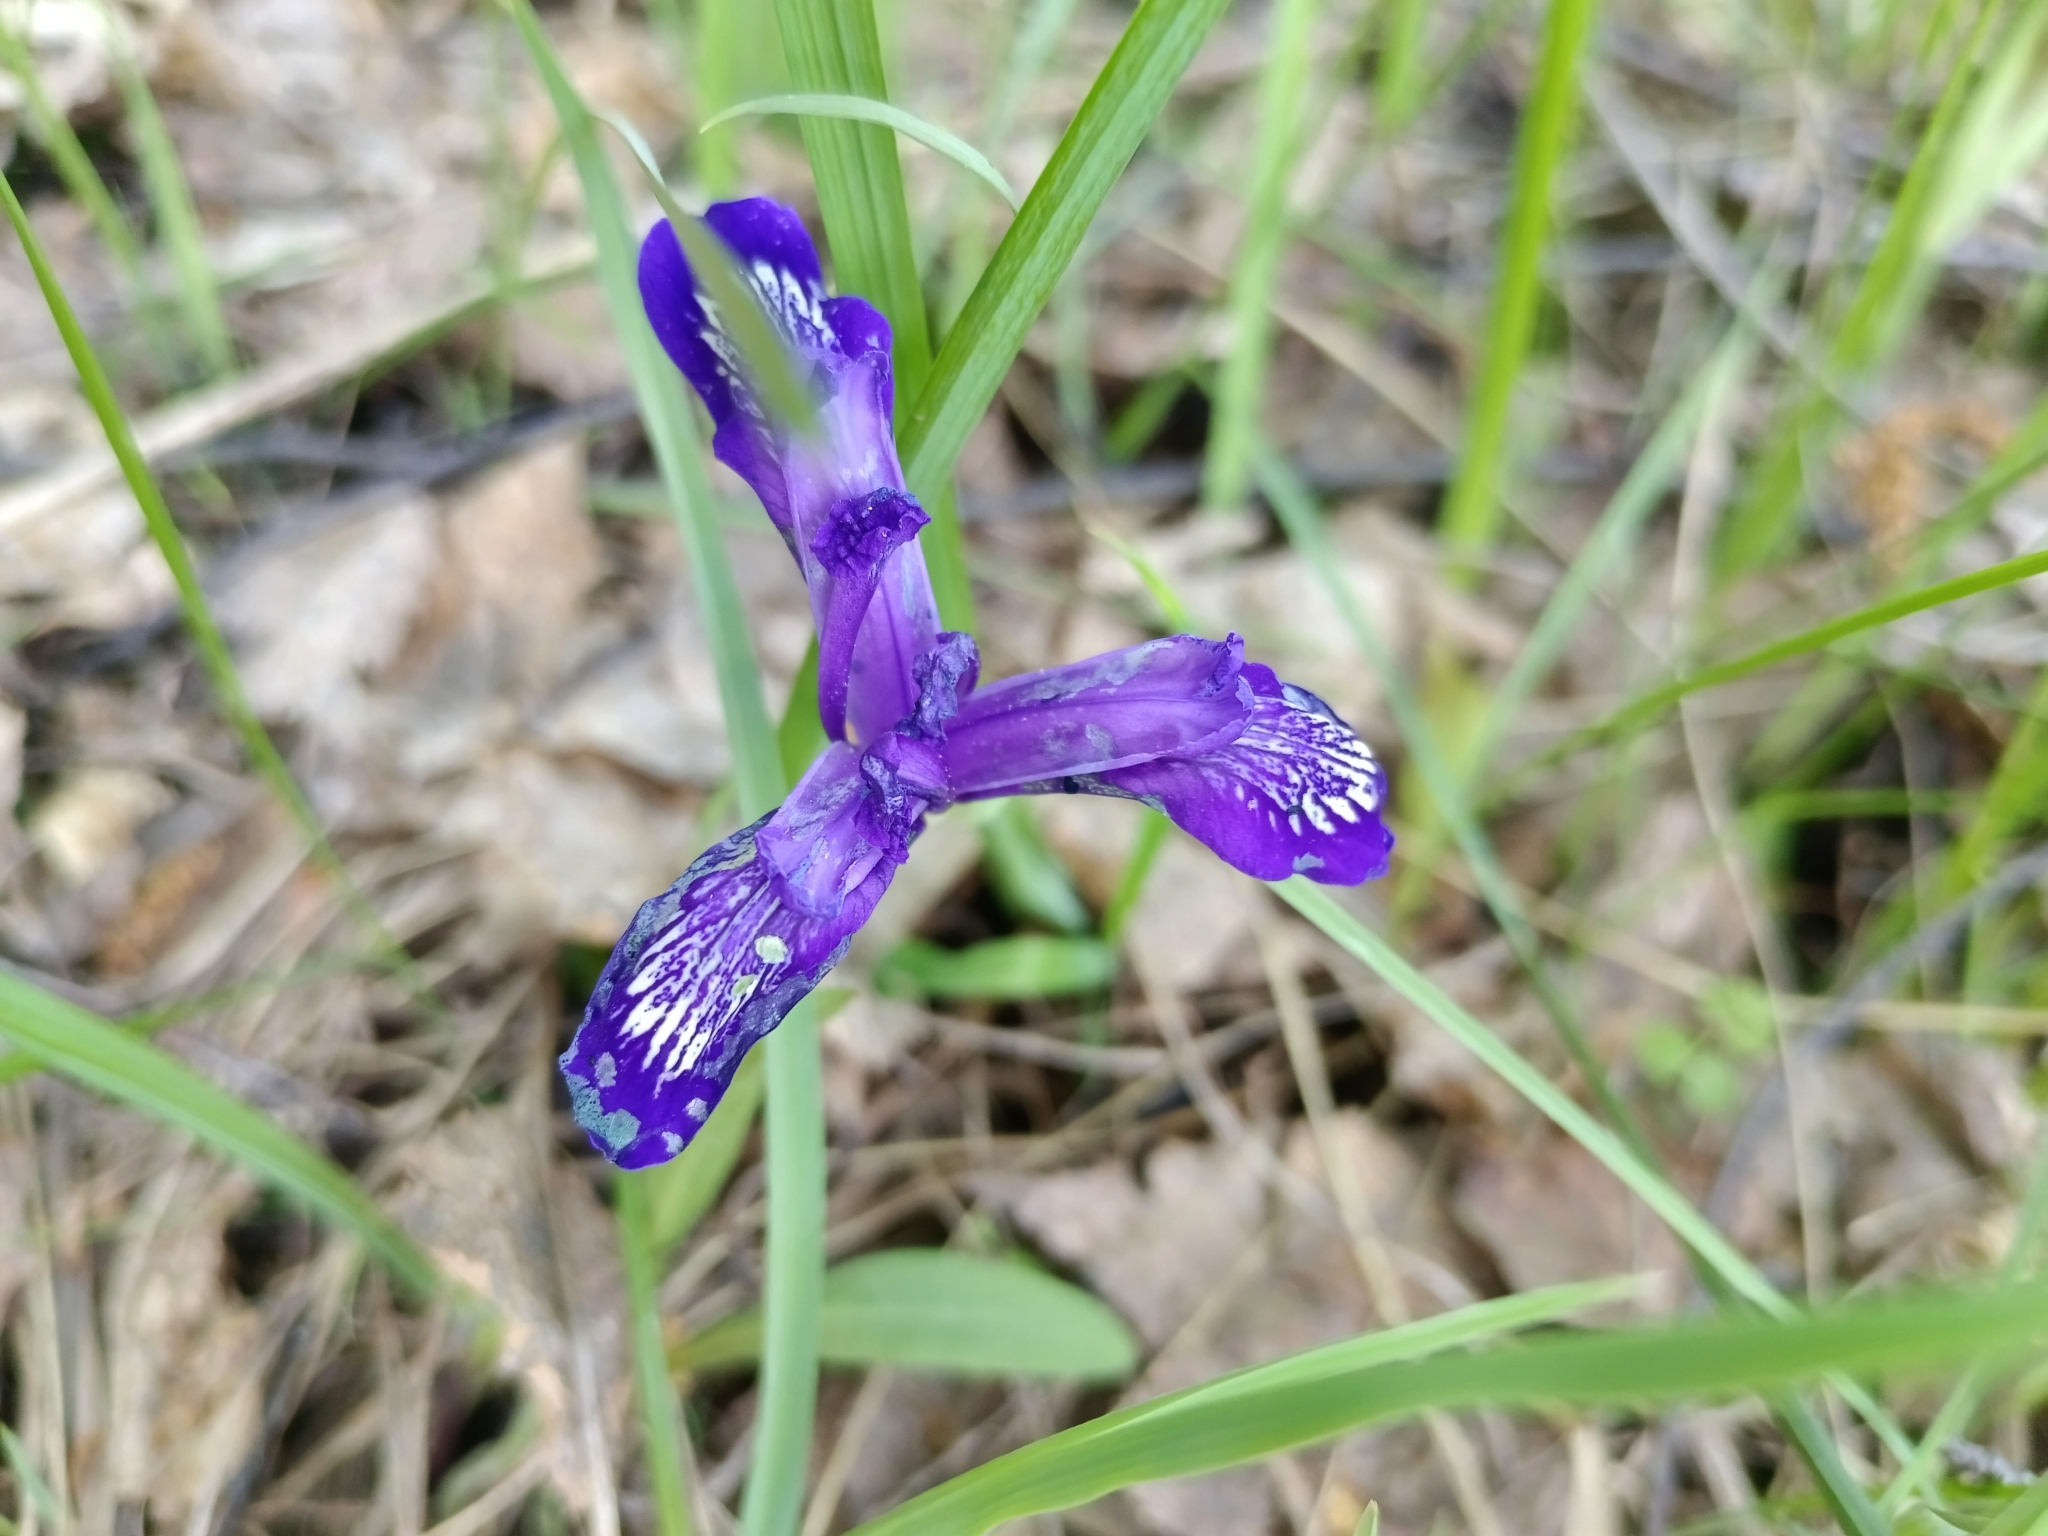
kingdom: Plantae
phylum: Tracheophyta
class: Liliopsida
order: Asparagales
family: Iridaceae
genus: Iris
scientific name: Iris ruthenica
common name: Purple-bract iris
